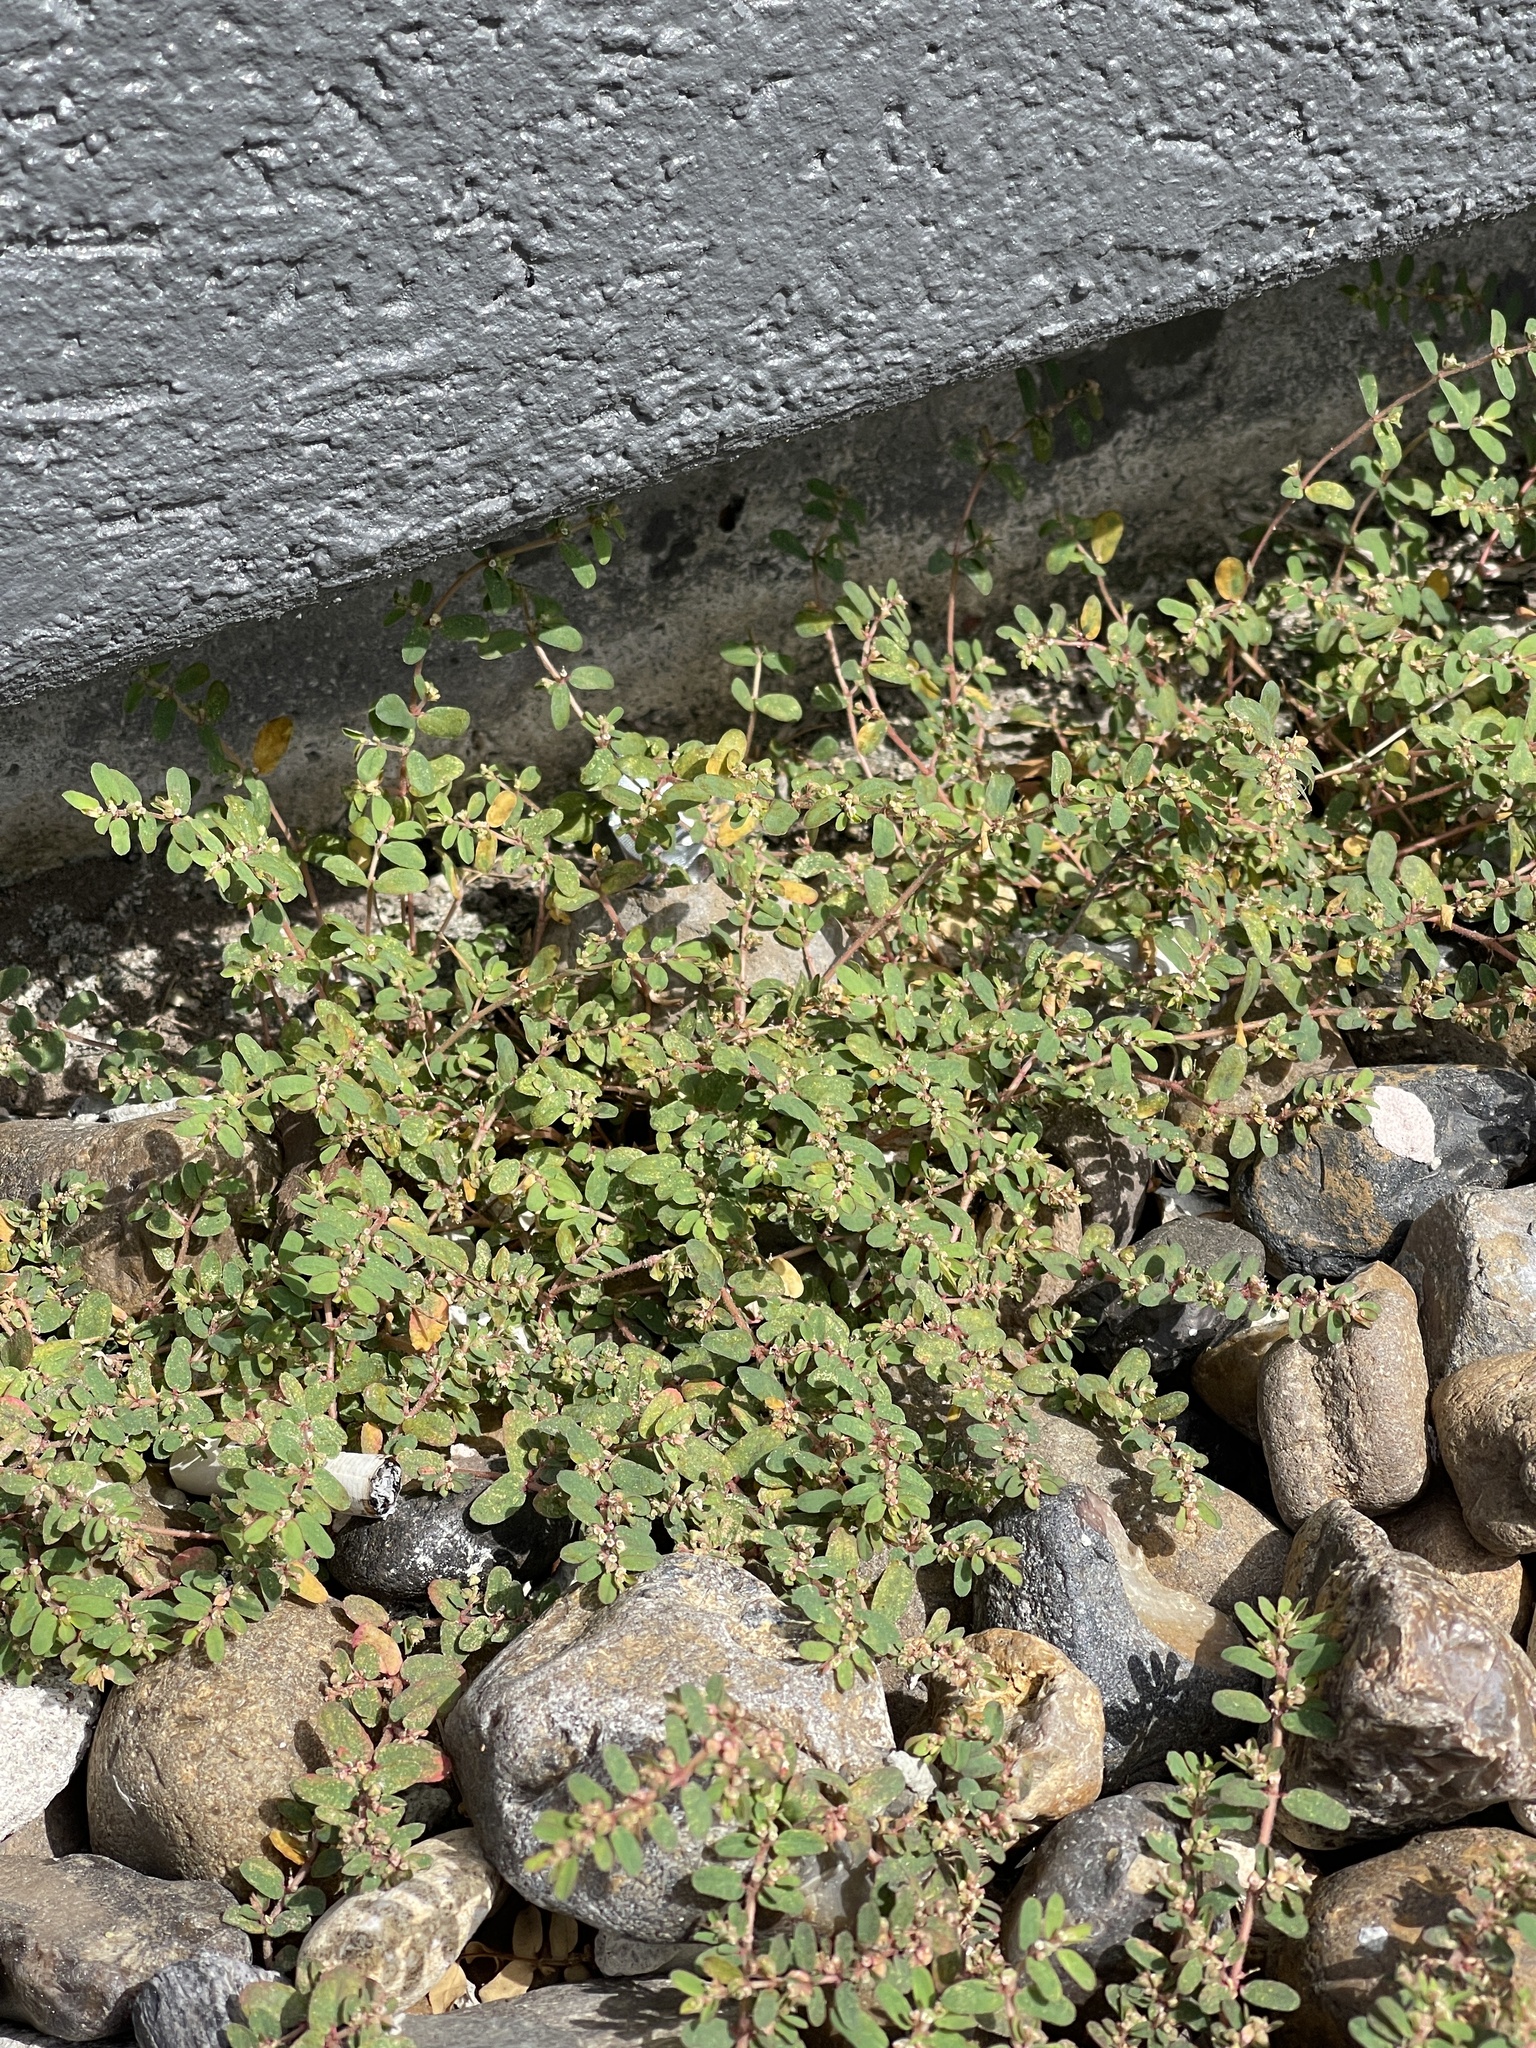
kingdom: Plantae
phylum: Tracheophyta
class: Magnoliopsida
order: Malpighiales
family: Euphorbiaceae
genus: Euphorbia
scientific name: Euphorbia maculata
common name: Spotted spurge
